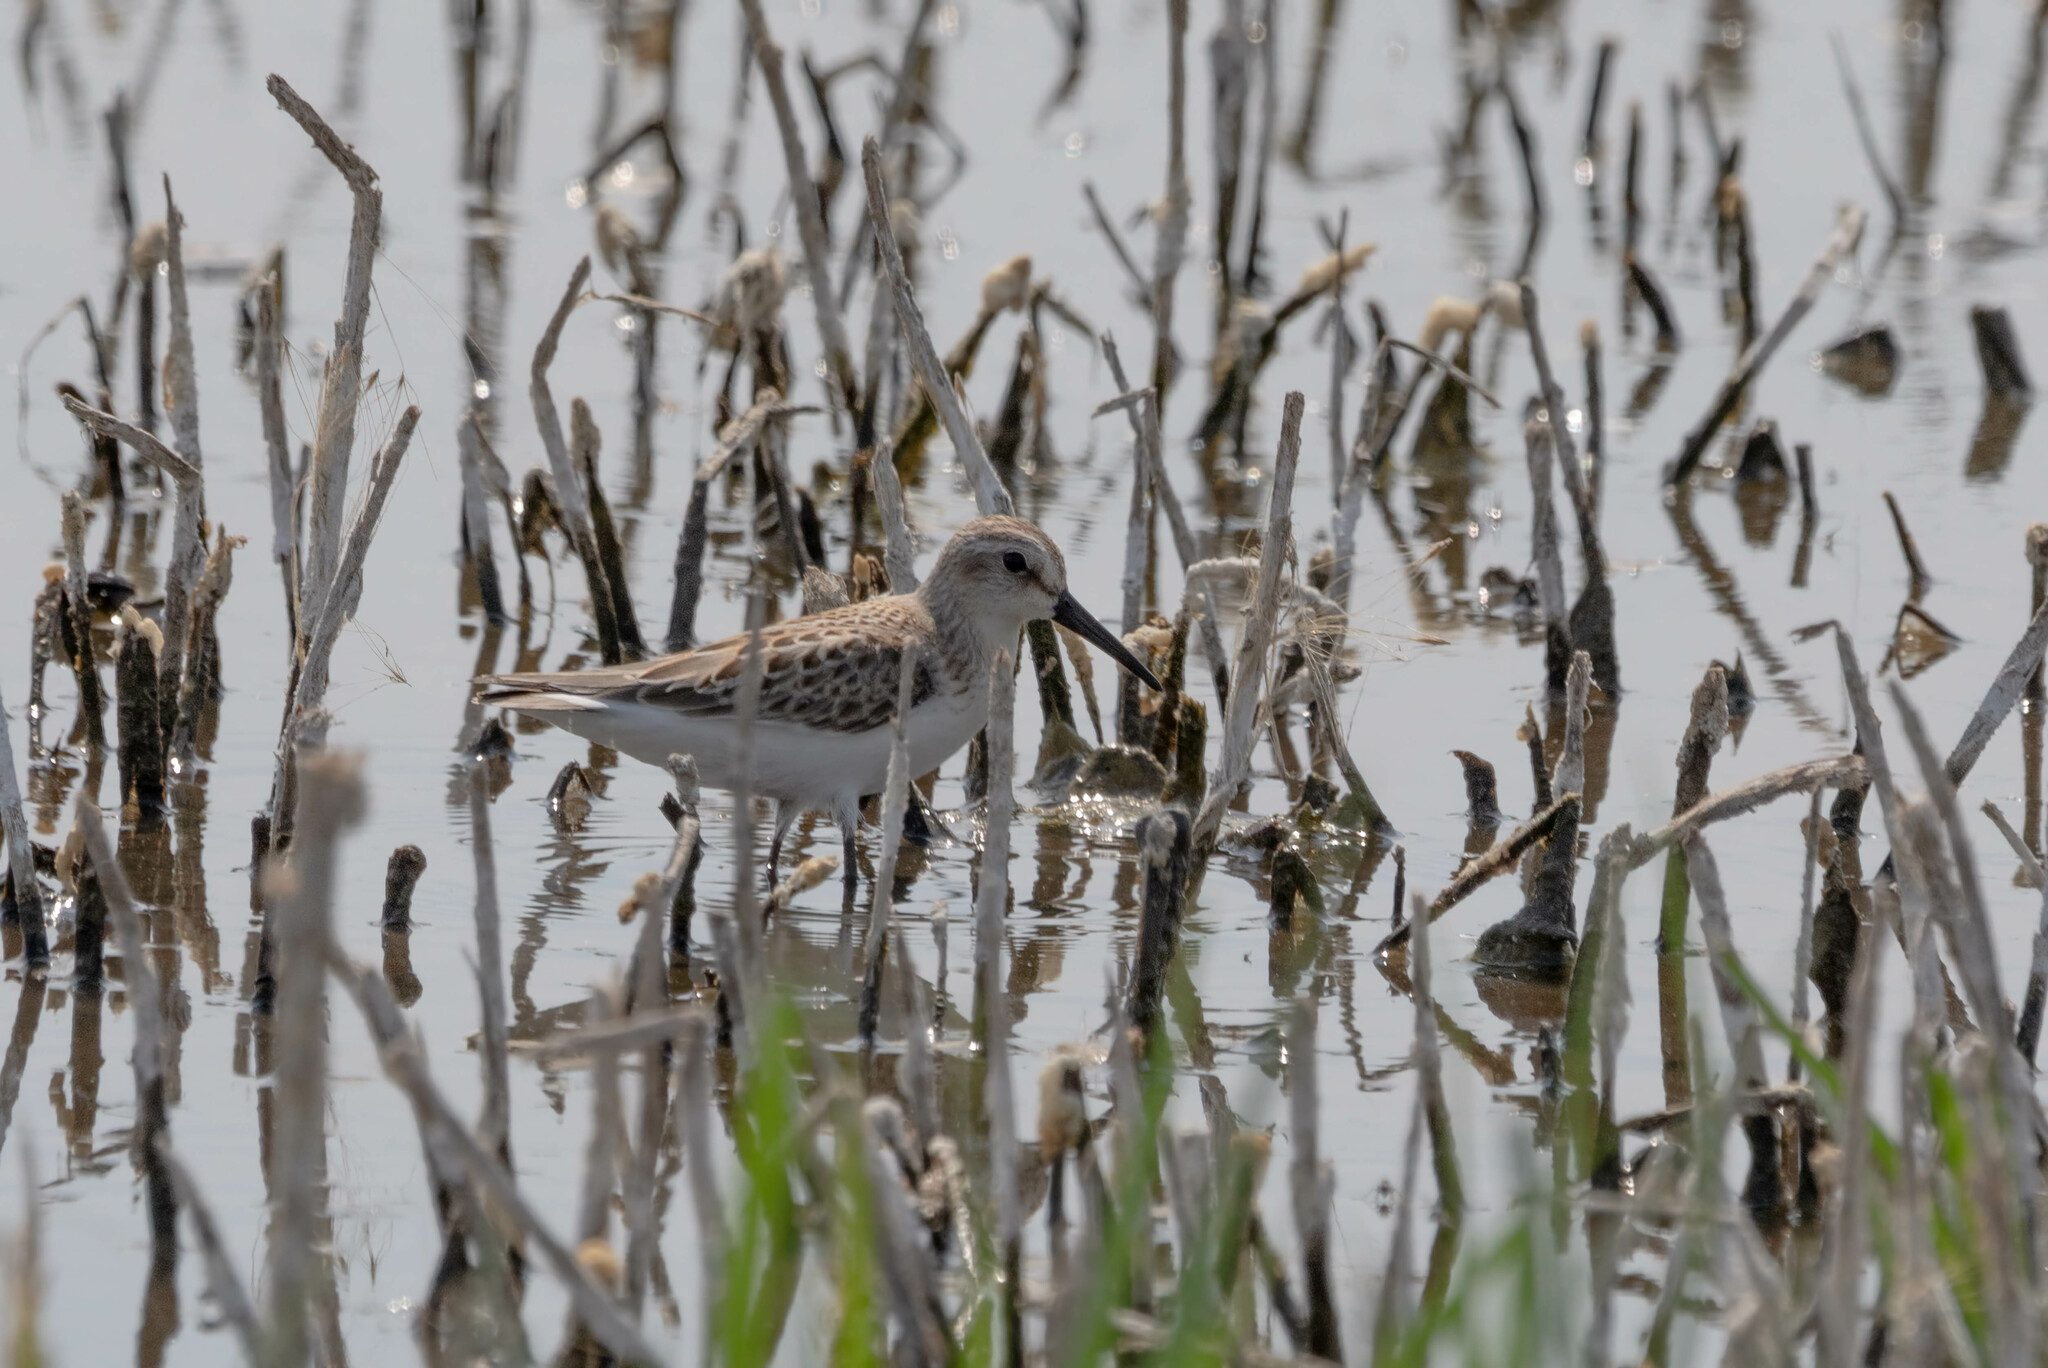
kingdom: Animalia
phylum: Chordata
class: Aves
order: Charadriiformes
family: Scolopacidae
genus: Calidris
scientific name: Calidris mauri
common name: Western sandpiper
